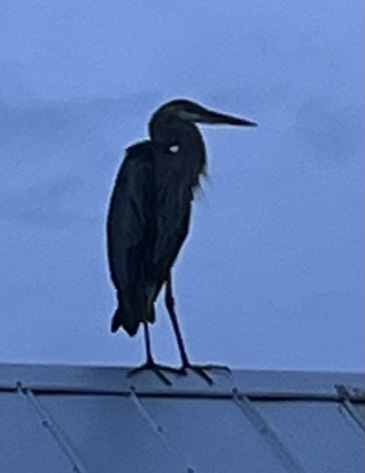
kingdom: Animalia
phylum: Chordata
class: Aves
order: Pelecaniformes
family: Ardeidae
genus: Ardea
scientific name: Ardea herodias
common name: Great blue heron
